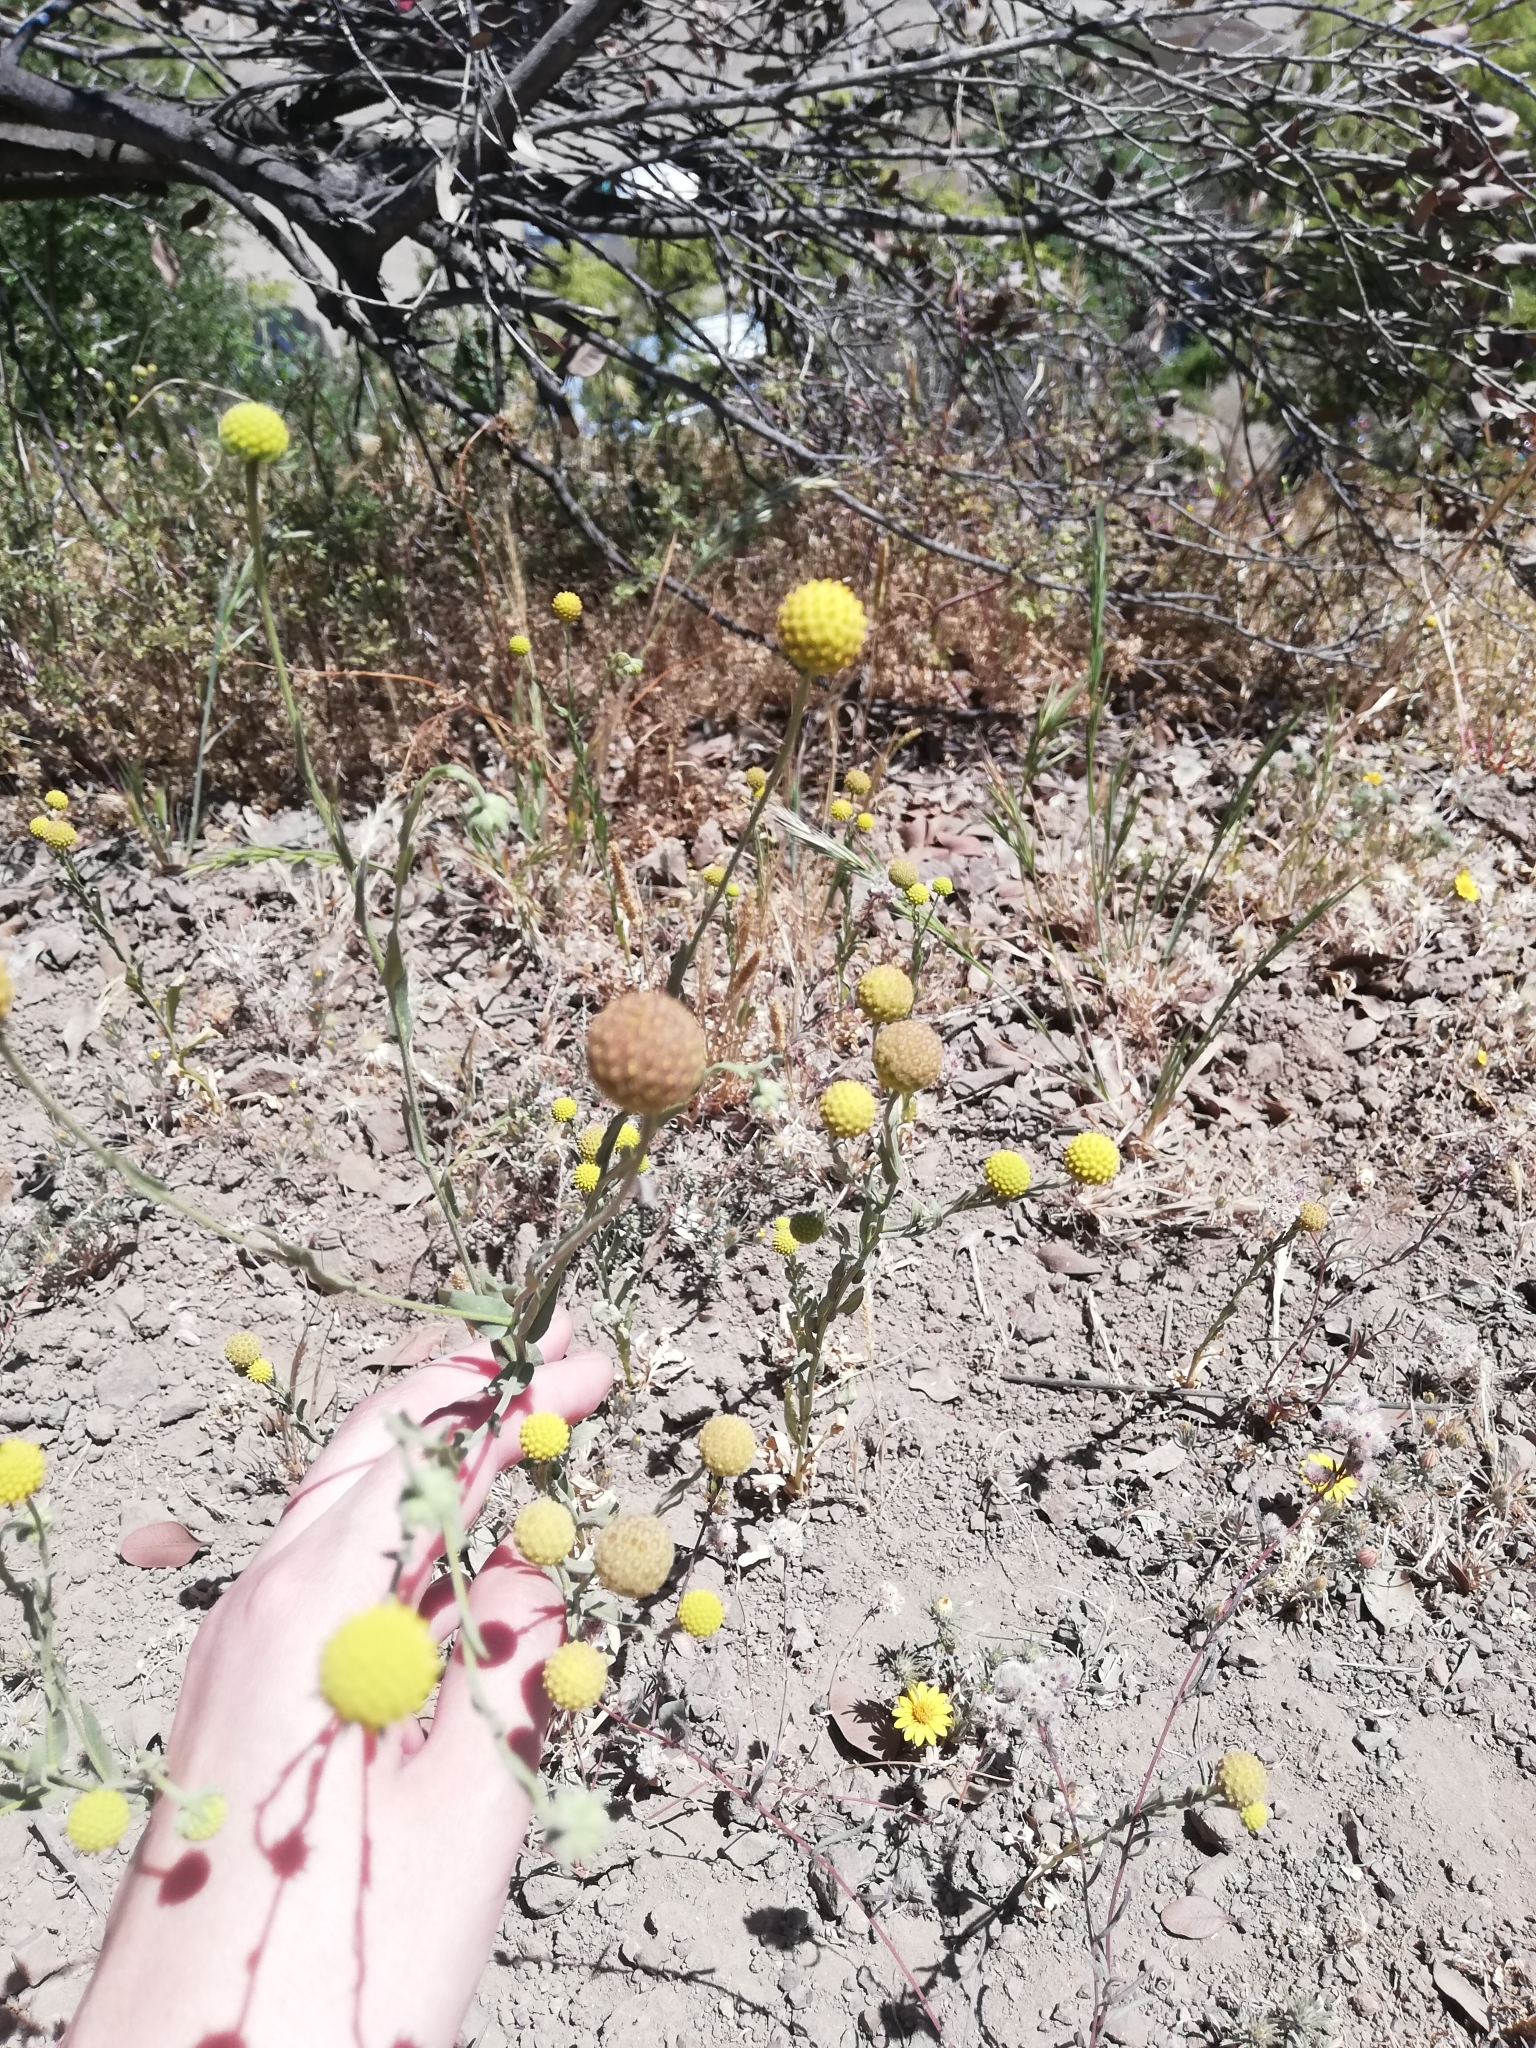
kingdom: Plantae
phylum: Tracheophyta
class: Magnoliopsida
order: Asterales
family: Asteraceae
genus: Helenium
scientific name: Helenium aromaticum
